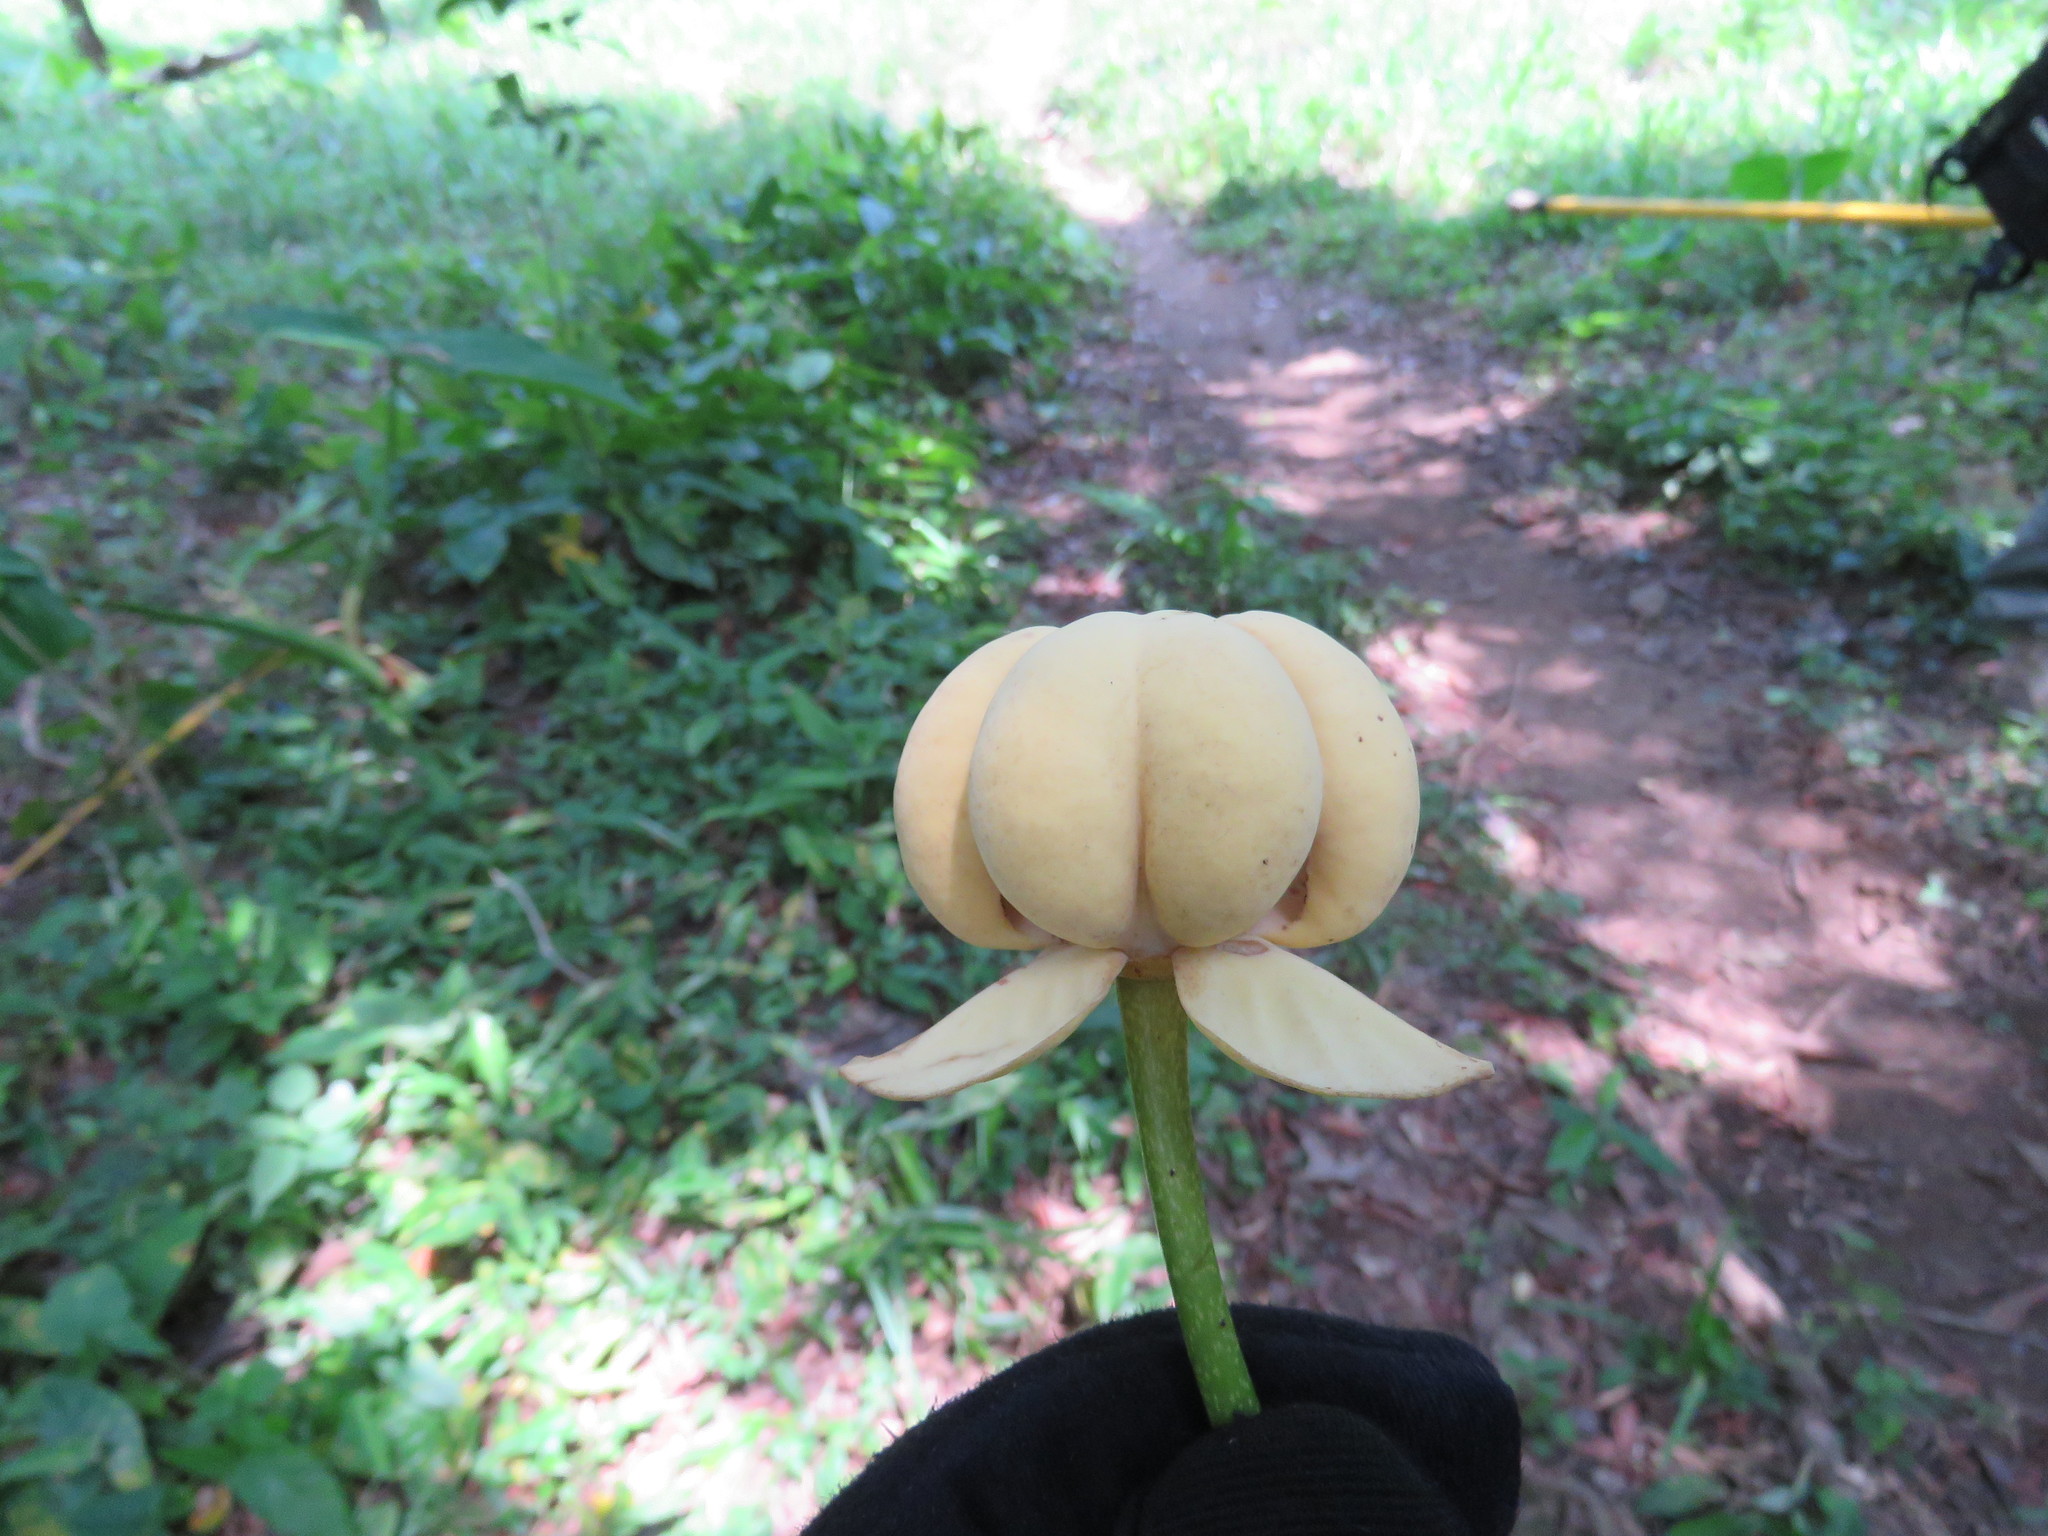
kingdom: Plantae
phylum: Tracheophyta
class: Magnoliopsida
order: Magnoliales
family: Annonaceae
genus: Cymbopetalum
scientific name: Cymbopetalum baillonii
